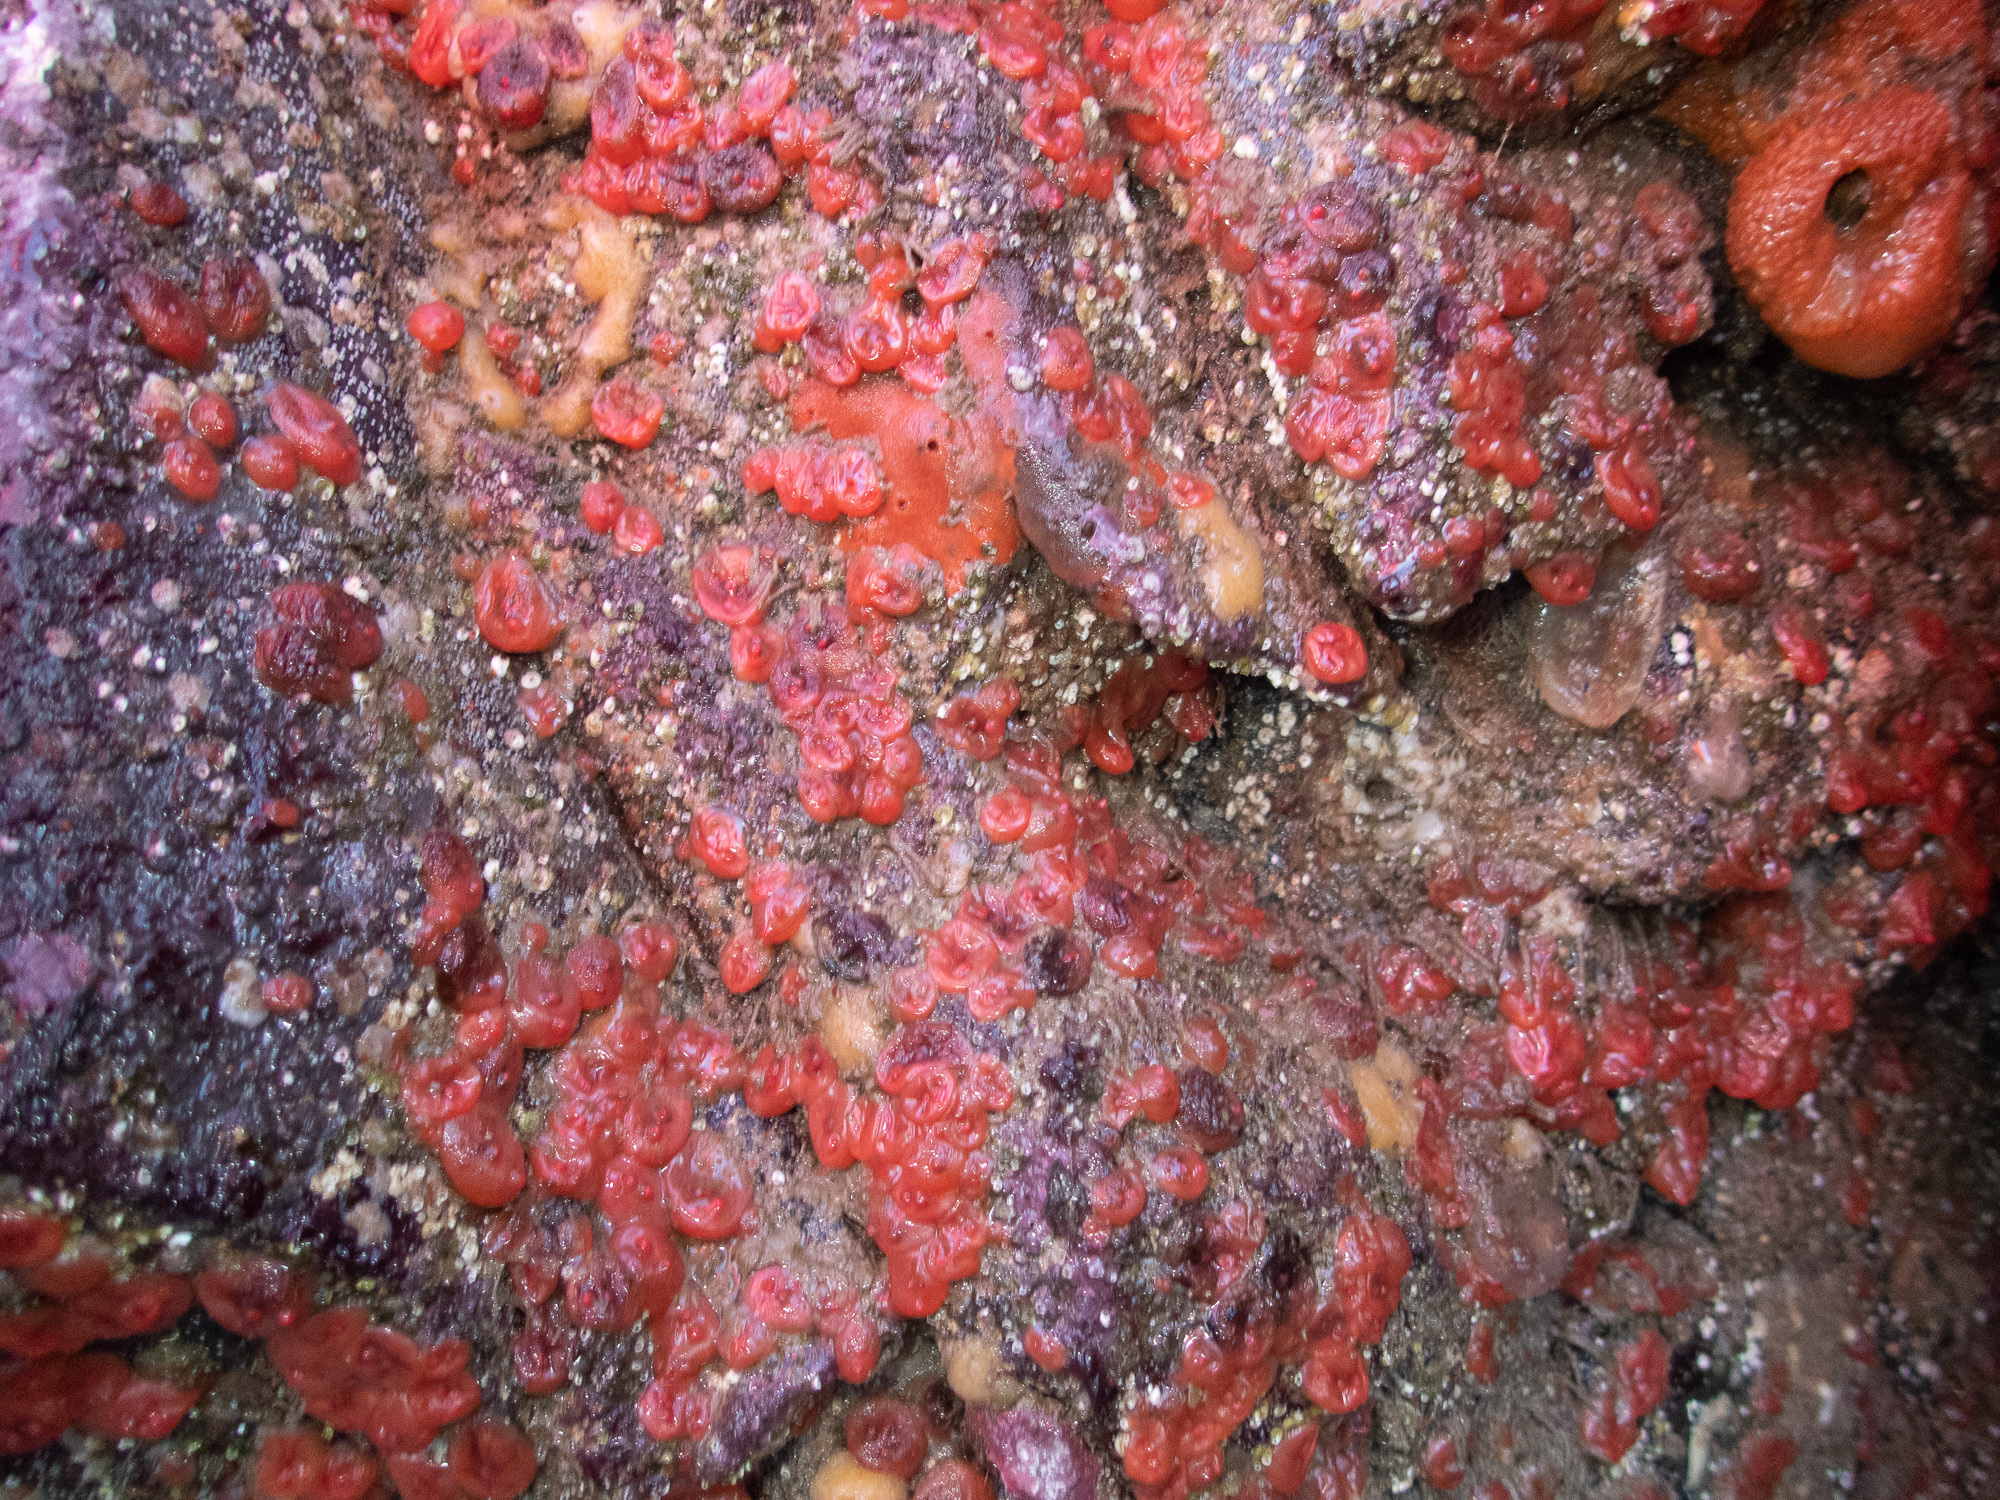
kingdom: Animalia
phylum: Chordata
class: Ascidiacea
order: Stolidobranchia
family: Styelidae
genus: Dendrodoa
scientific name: Dendrodoa grossularia
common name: Baked bean ascidian
